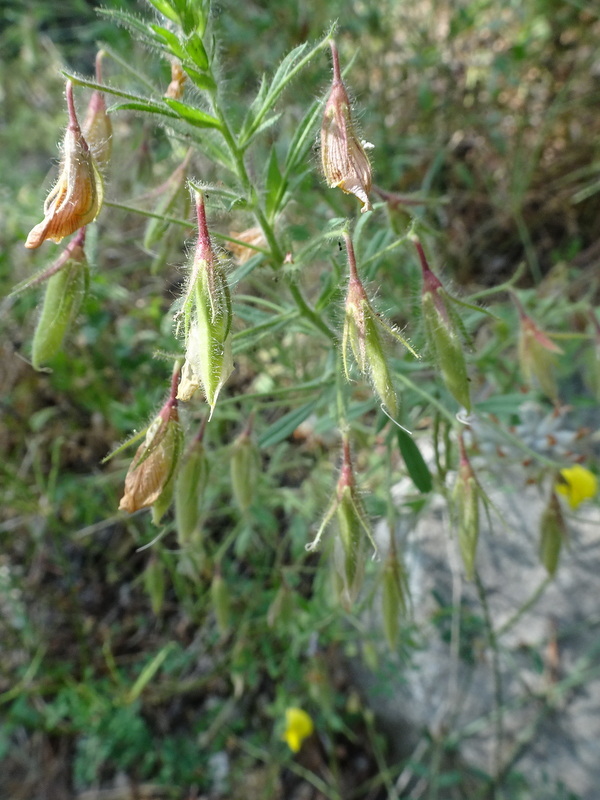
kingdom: Plantae
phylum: Tracheophyta
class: Magnoliopsida
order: Fabales
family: Fabaceae
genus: Ononis
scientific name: Ononis natrix
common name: Yellow restharrow
